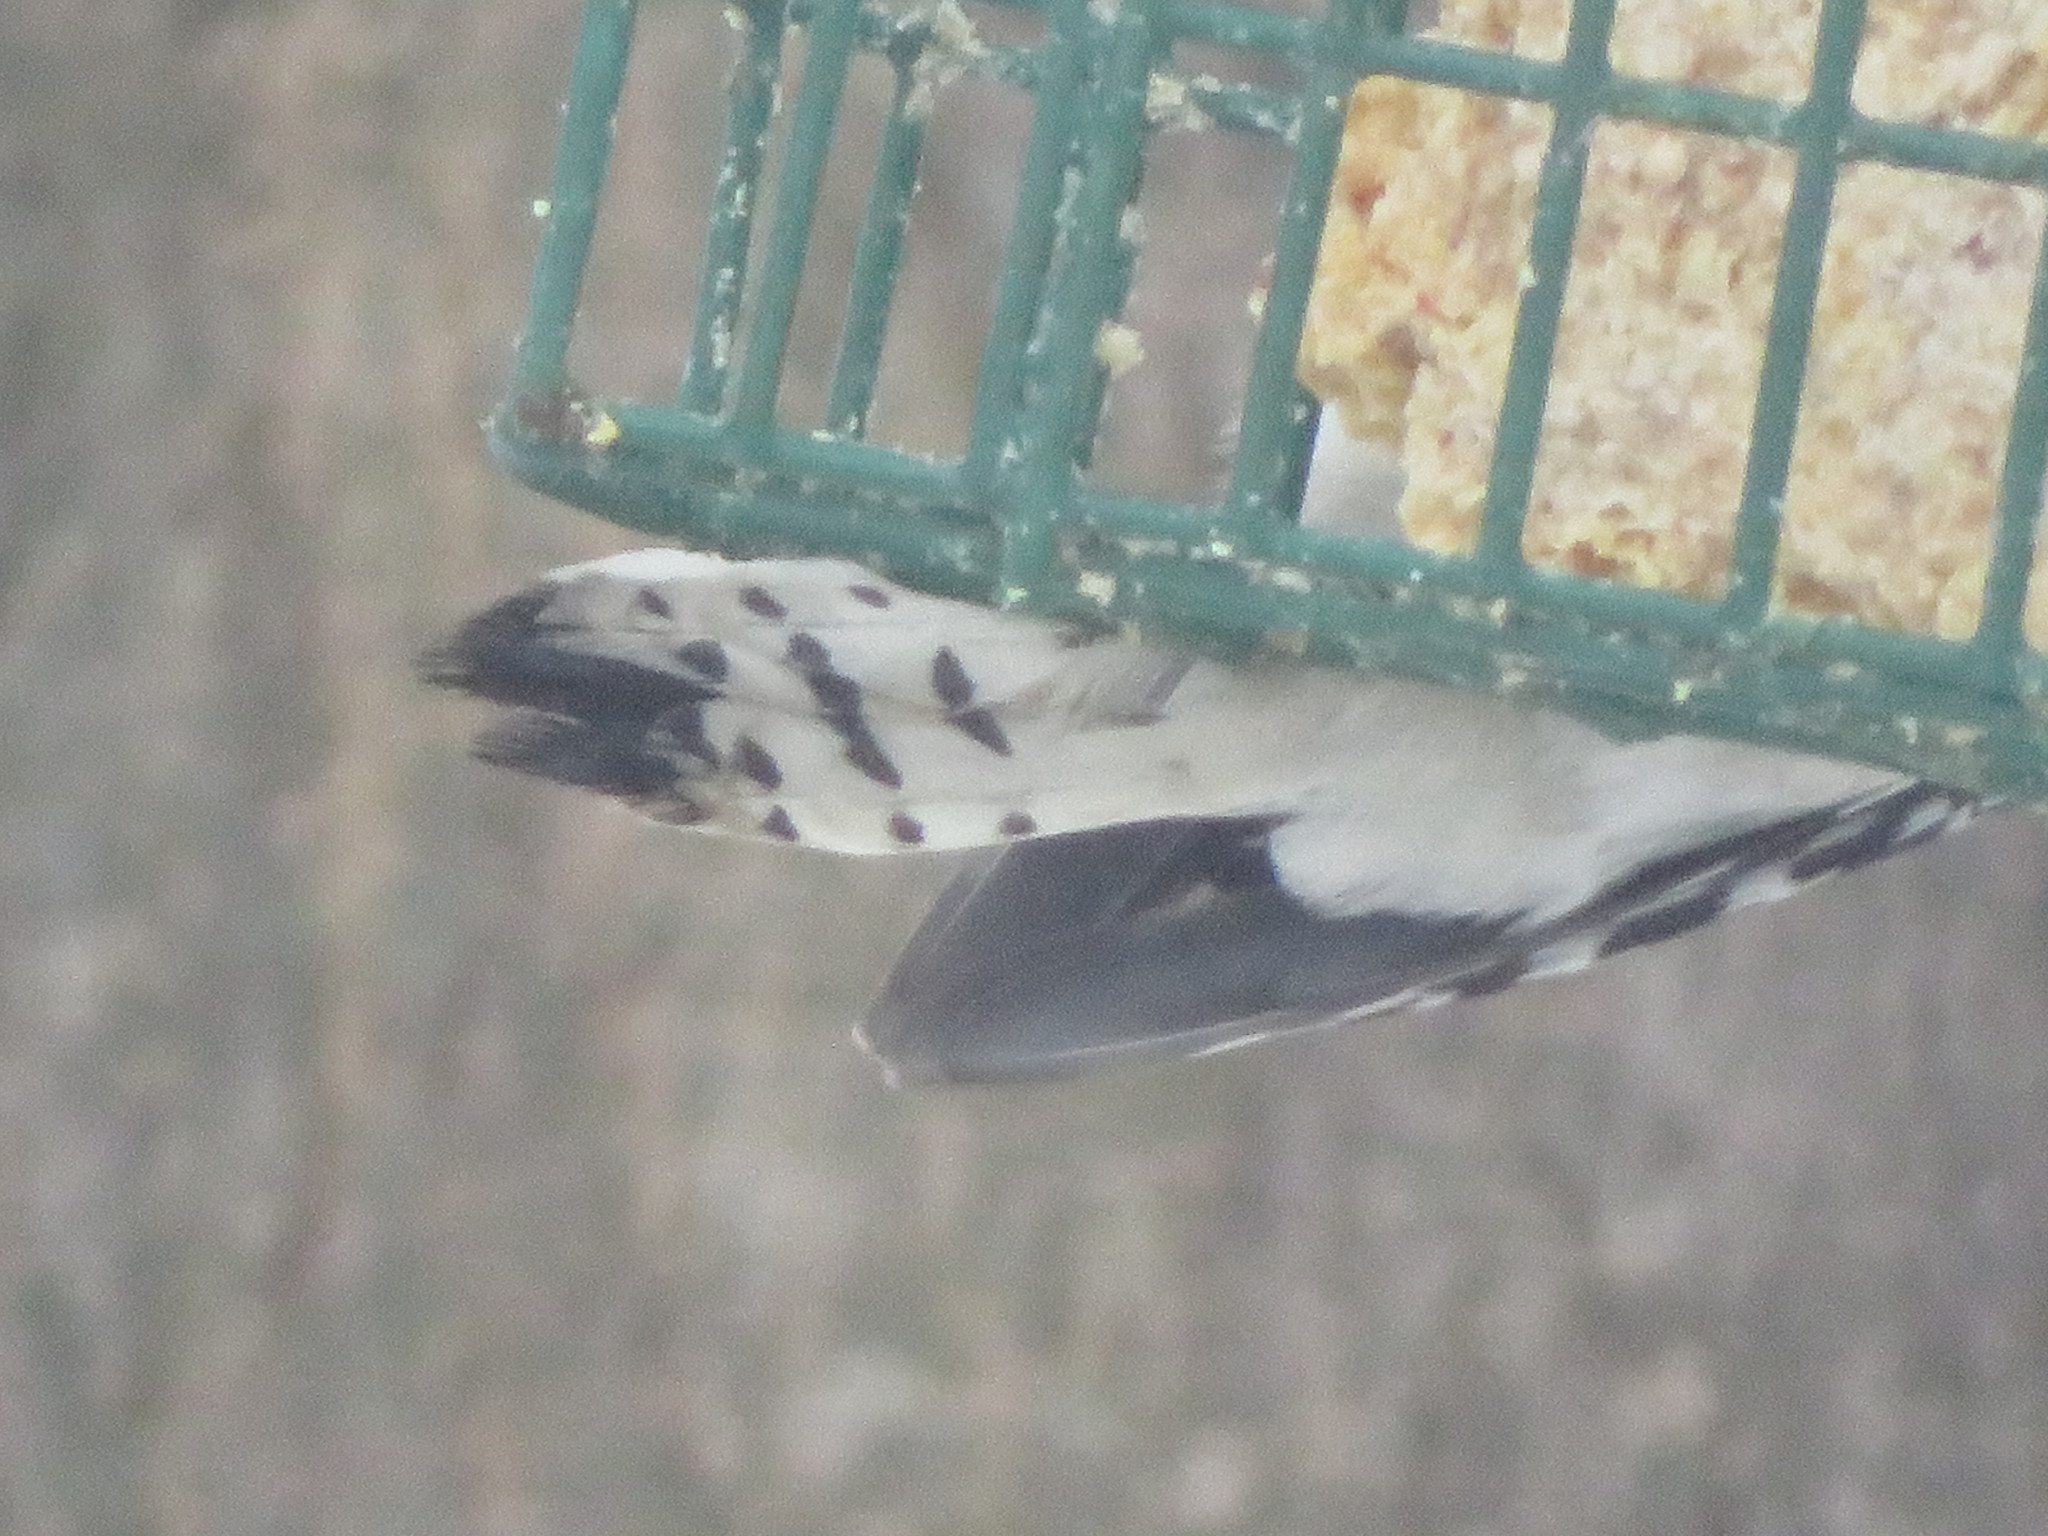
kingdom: Animalia
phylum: Chordata
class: Aves
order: Piciformes
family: Picidae
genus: Dryobates
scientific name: Dryobates pubescens
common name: Downy woodpecker
